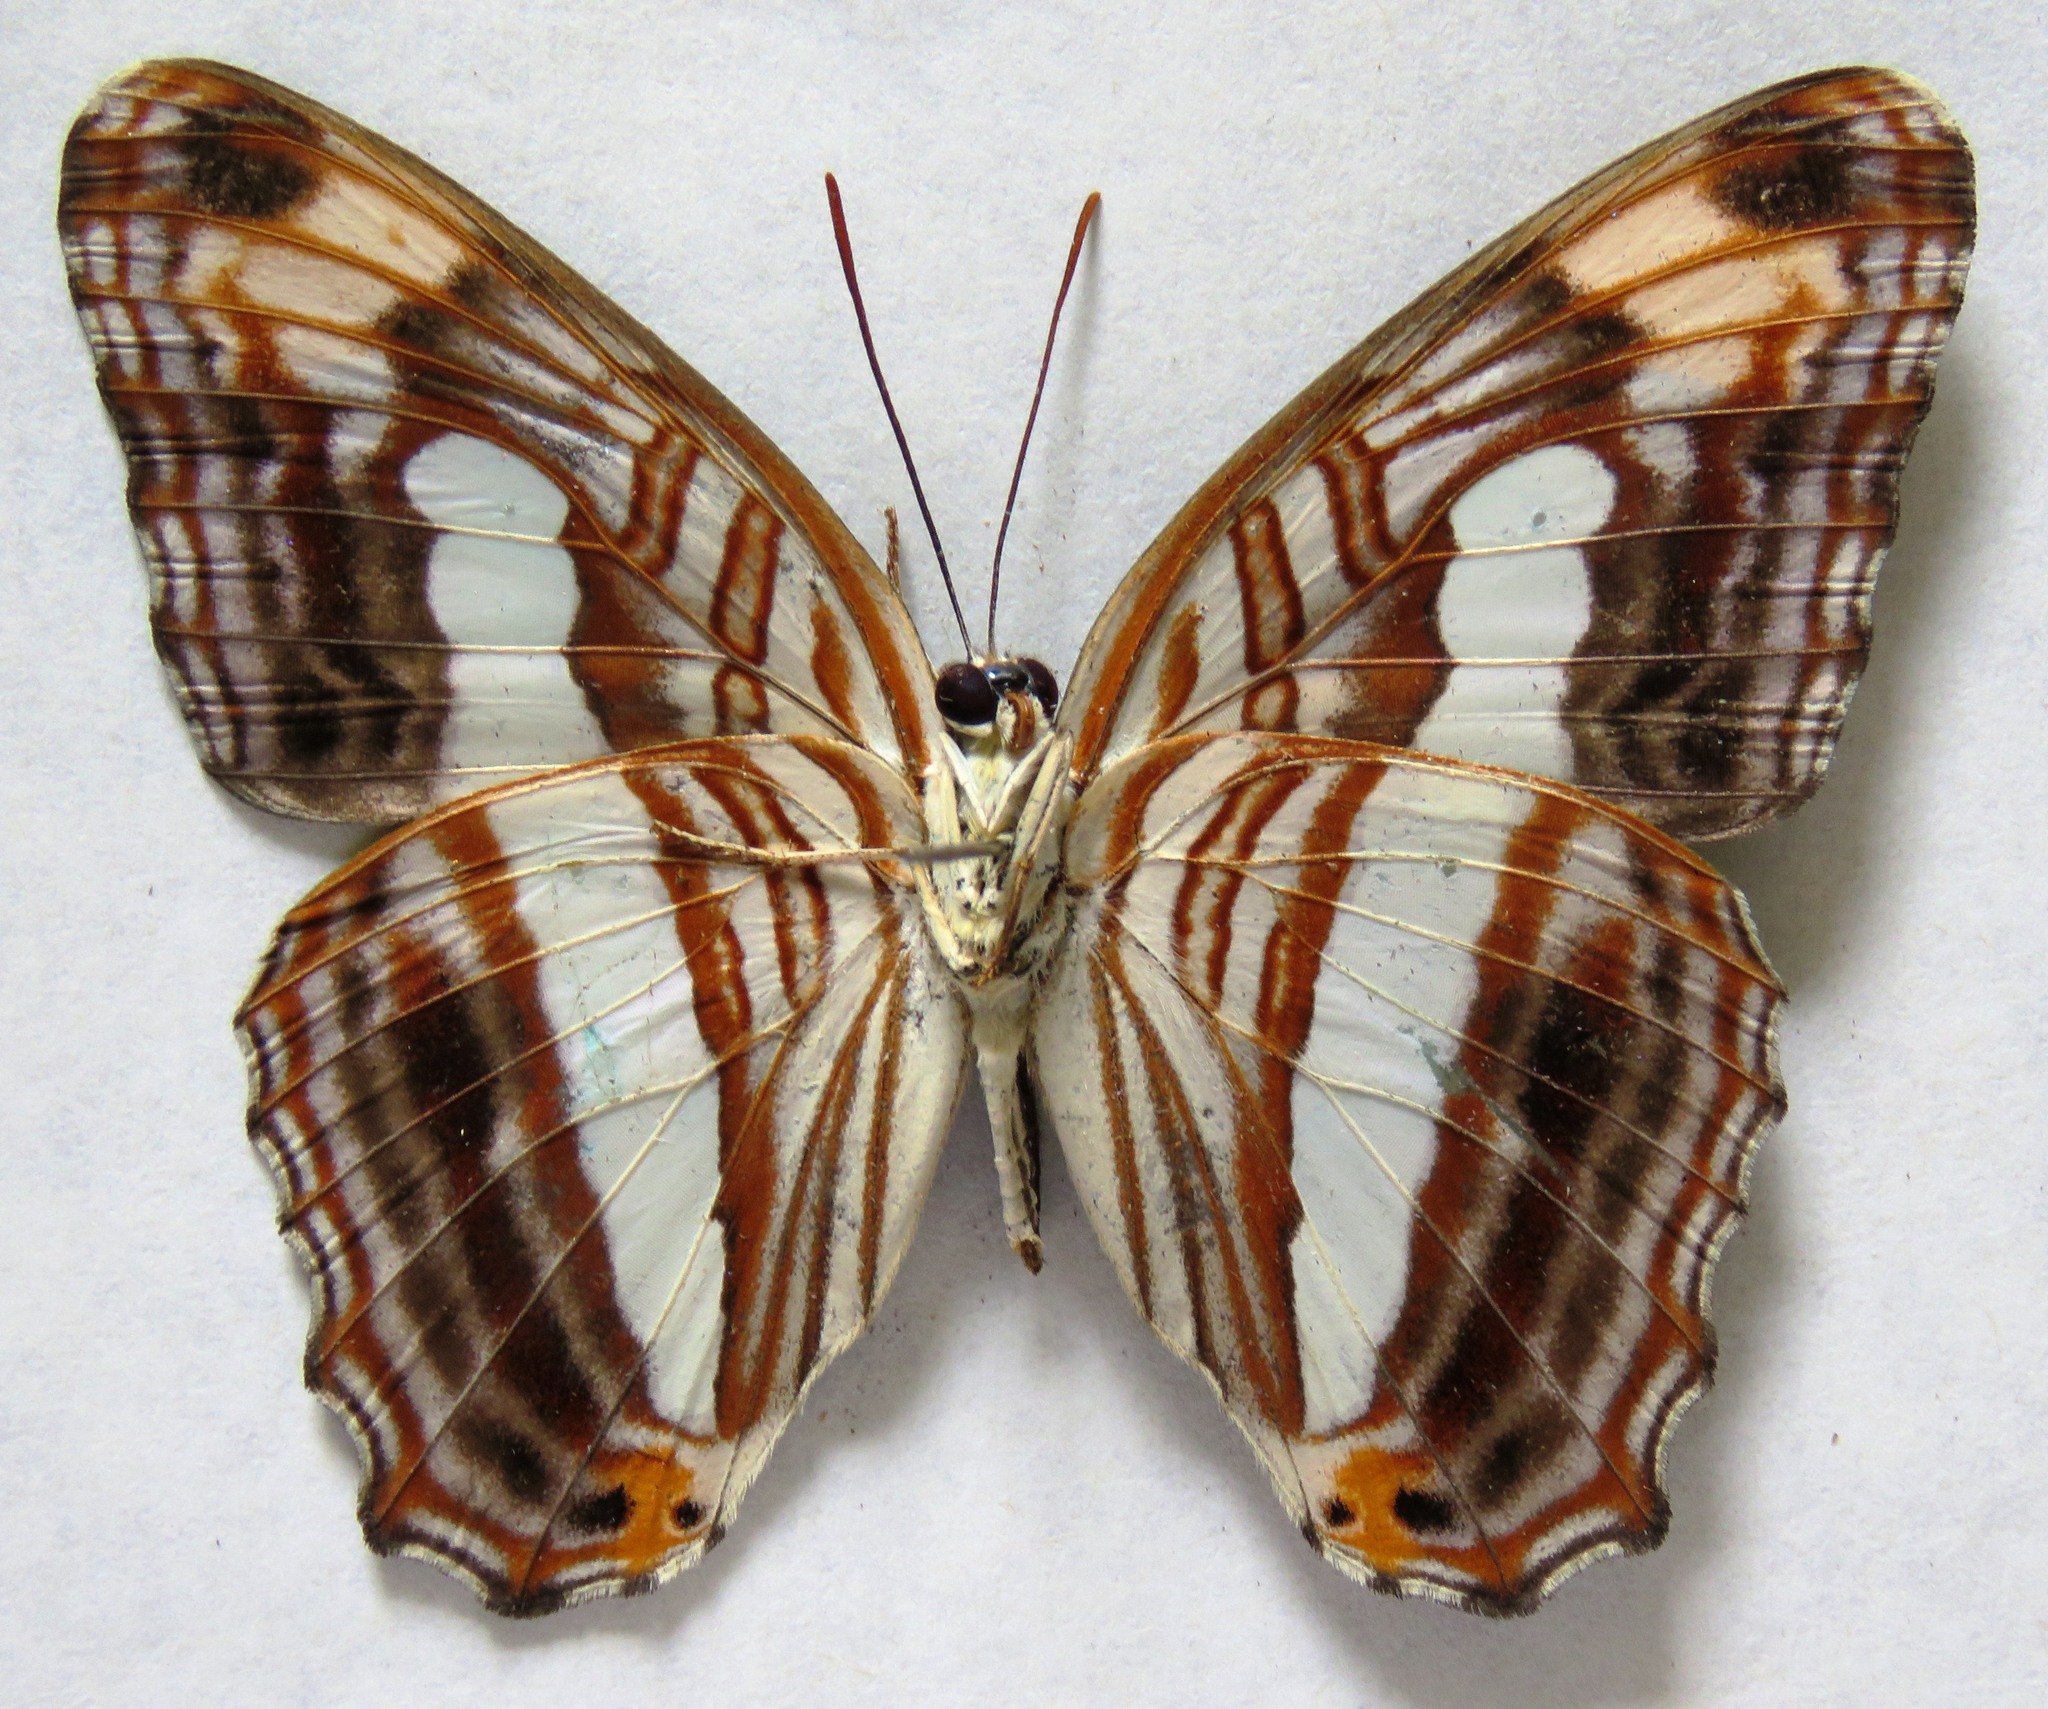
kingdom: Animalia
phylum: Arthropoda
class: Insecta
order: Lepidoptera
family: Nymphalidae
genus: Limenitis
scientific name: Limenitis iphiclus
